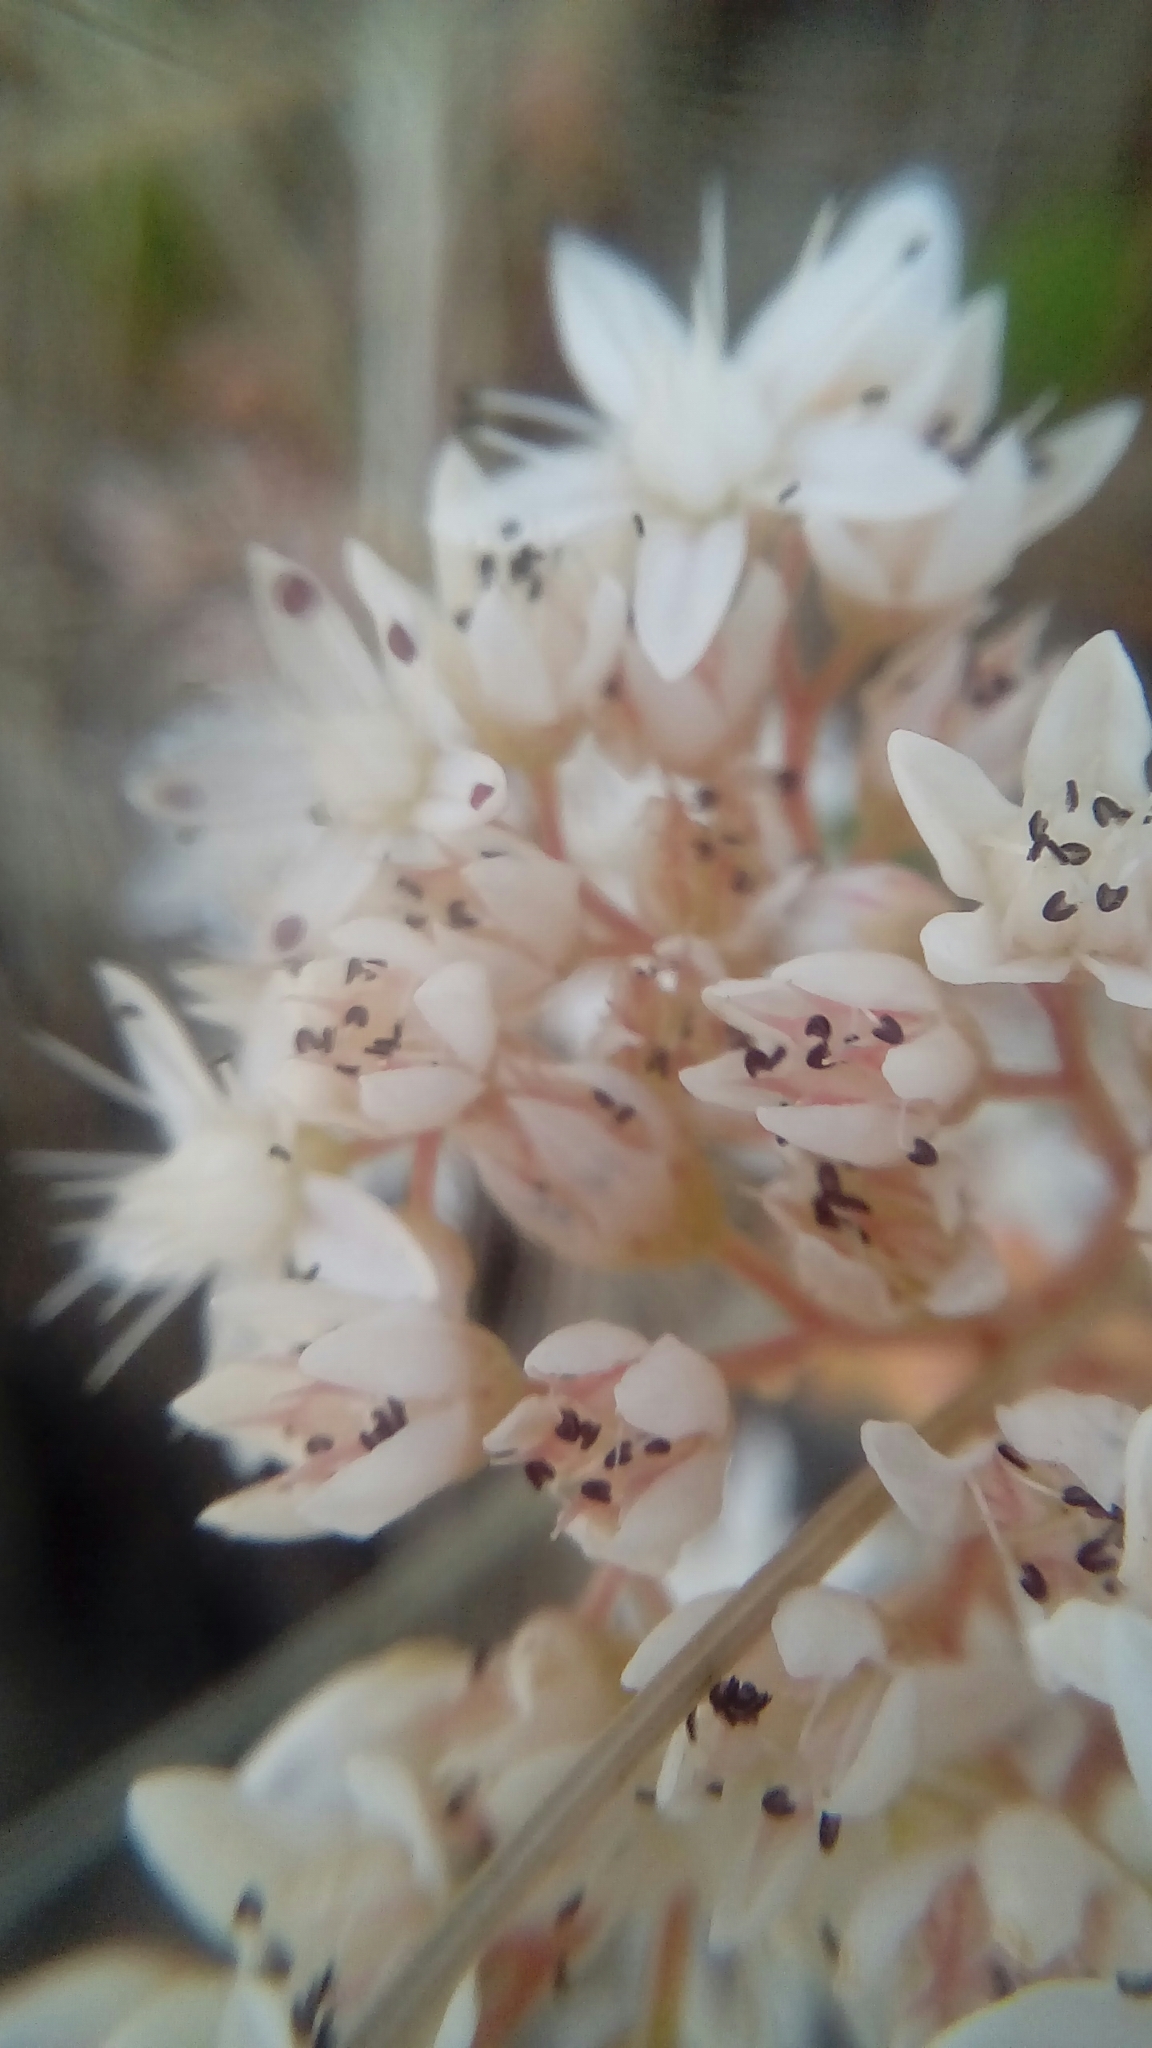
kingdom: Plantae
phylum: Tracheophyta
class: Magnoliopsida
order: Saxifragales
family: Crassulaceae
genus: Sedum
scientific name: Sedum album
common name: White stonecrop
